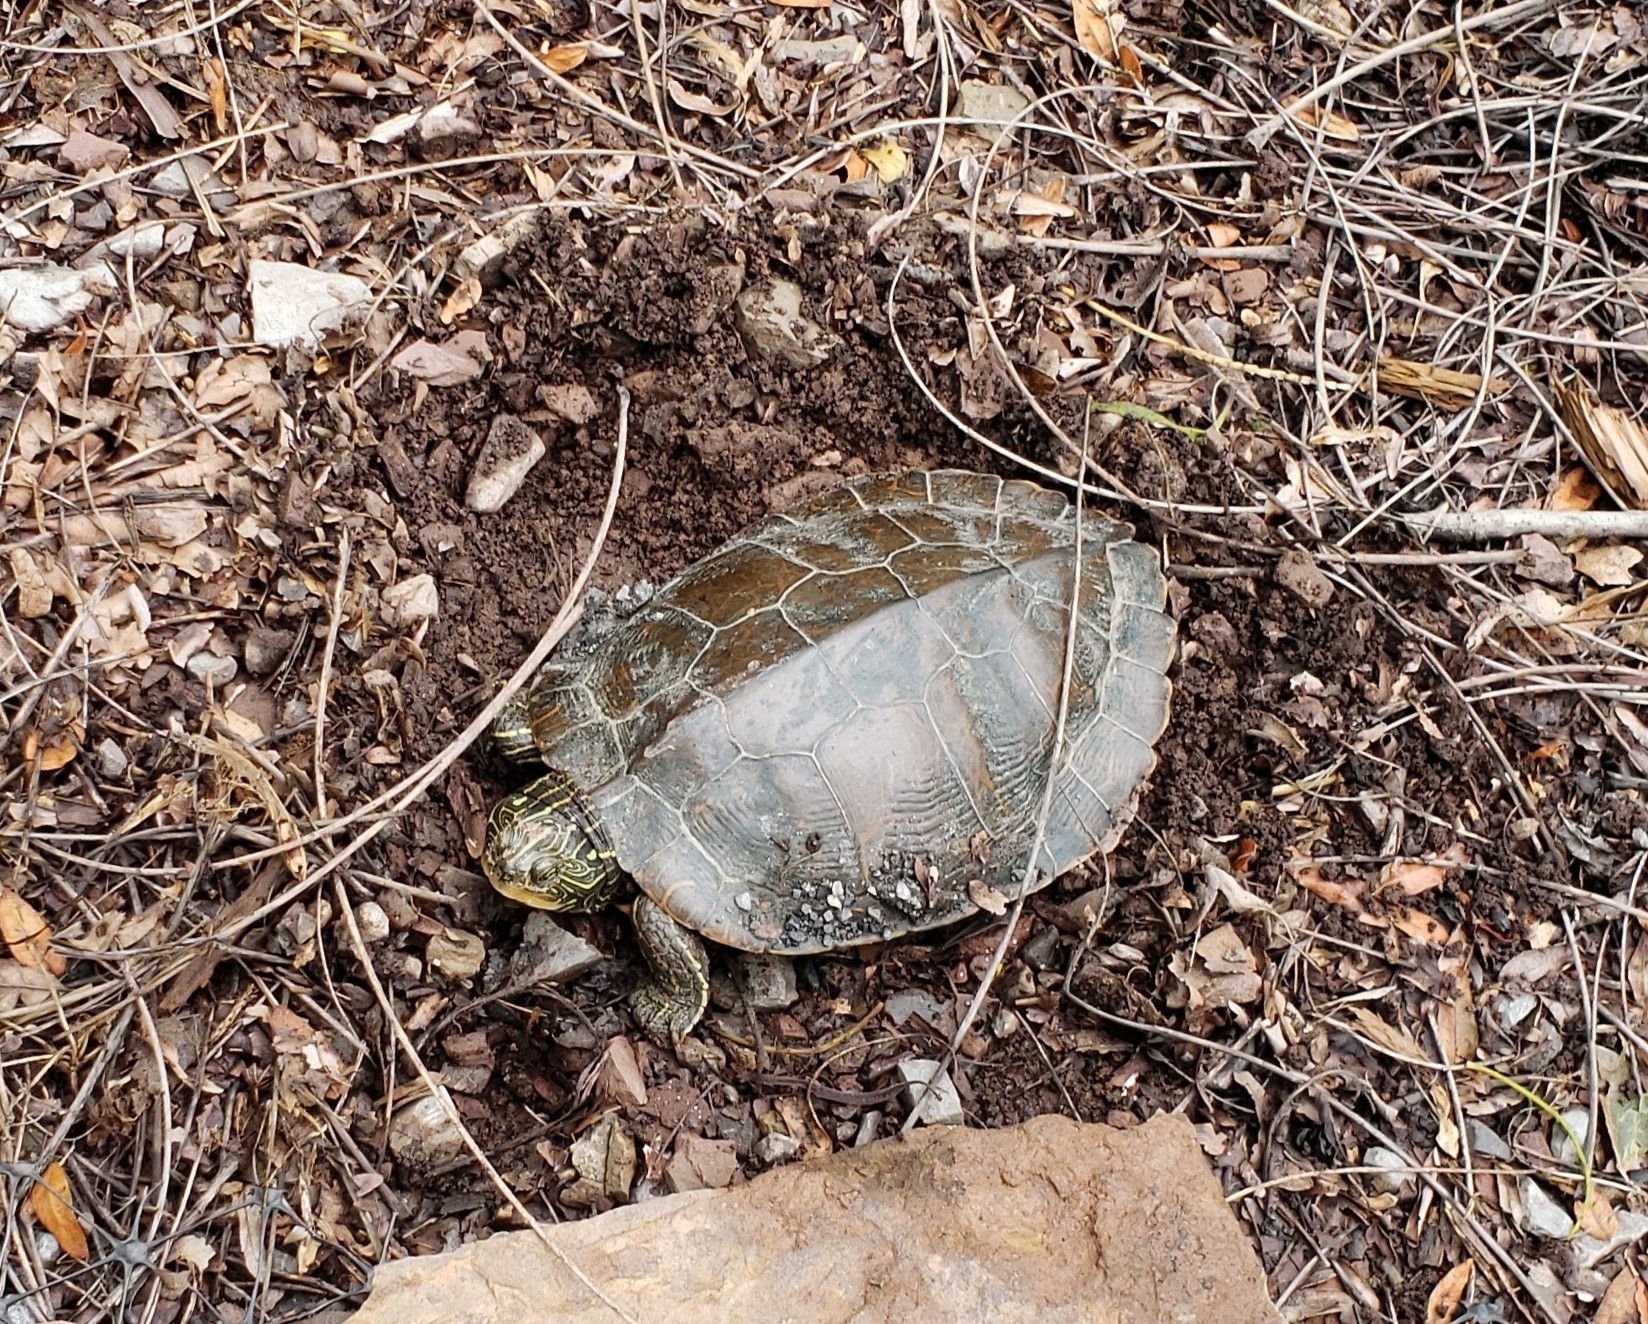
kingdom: Animalia
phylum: Chordata
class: Testudines
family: Emydidae
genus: Graptemys
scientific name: Graptemys geographica
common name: Common map turtle
